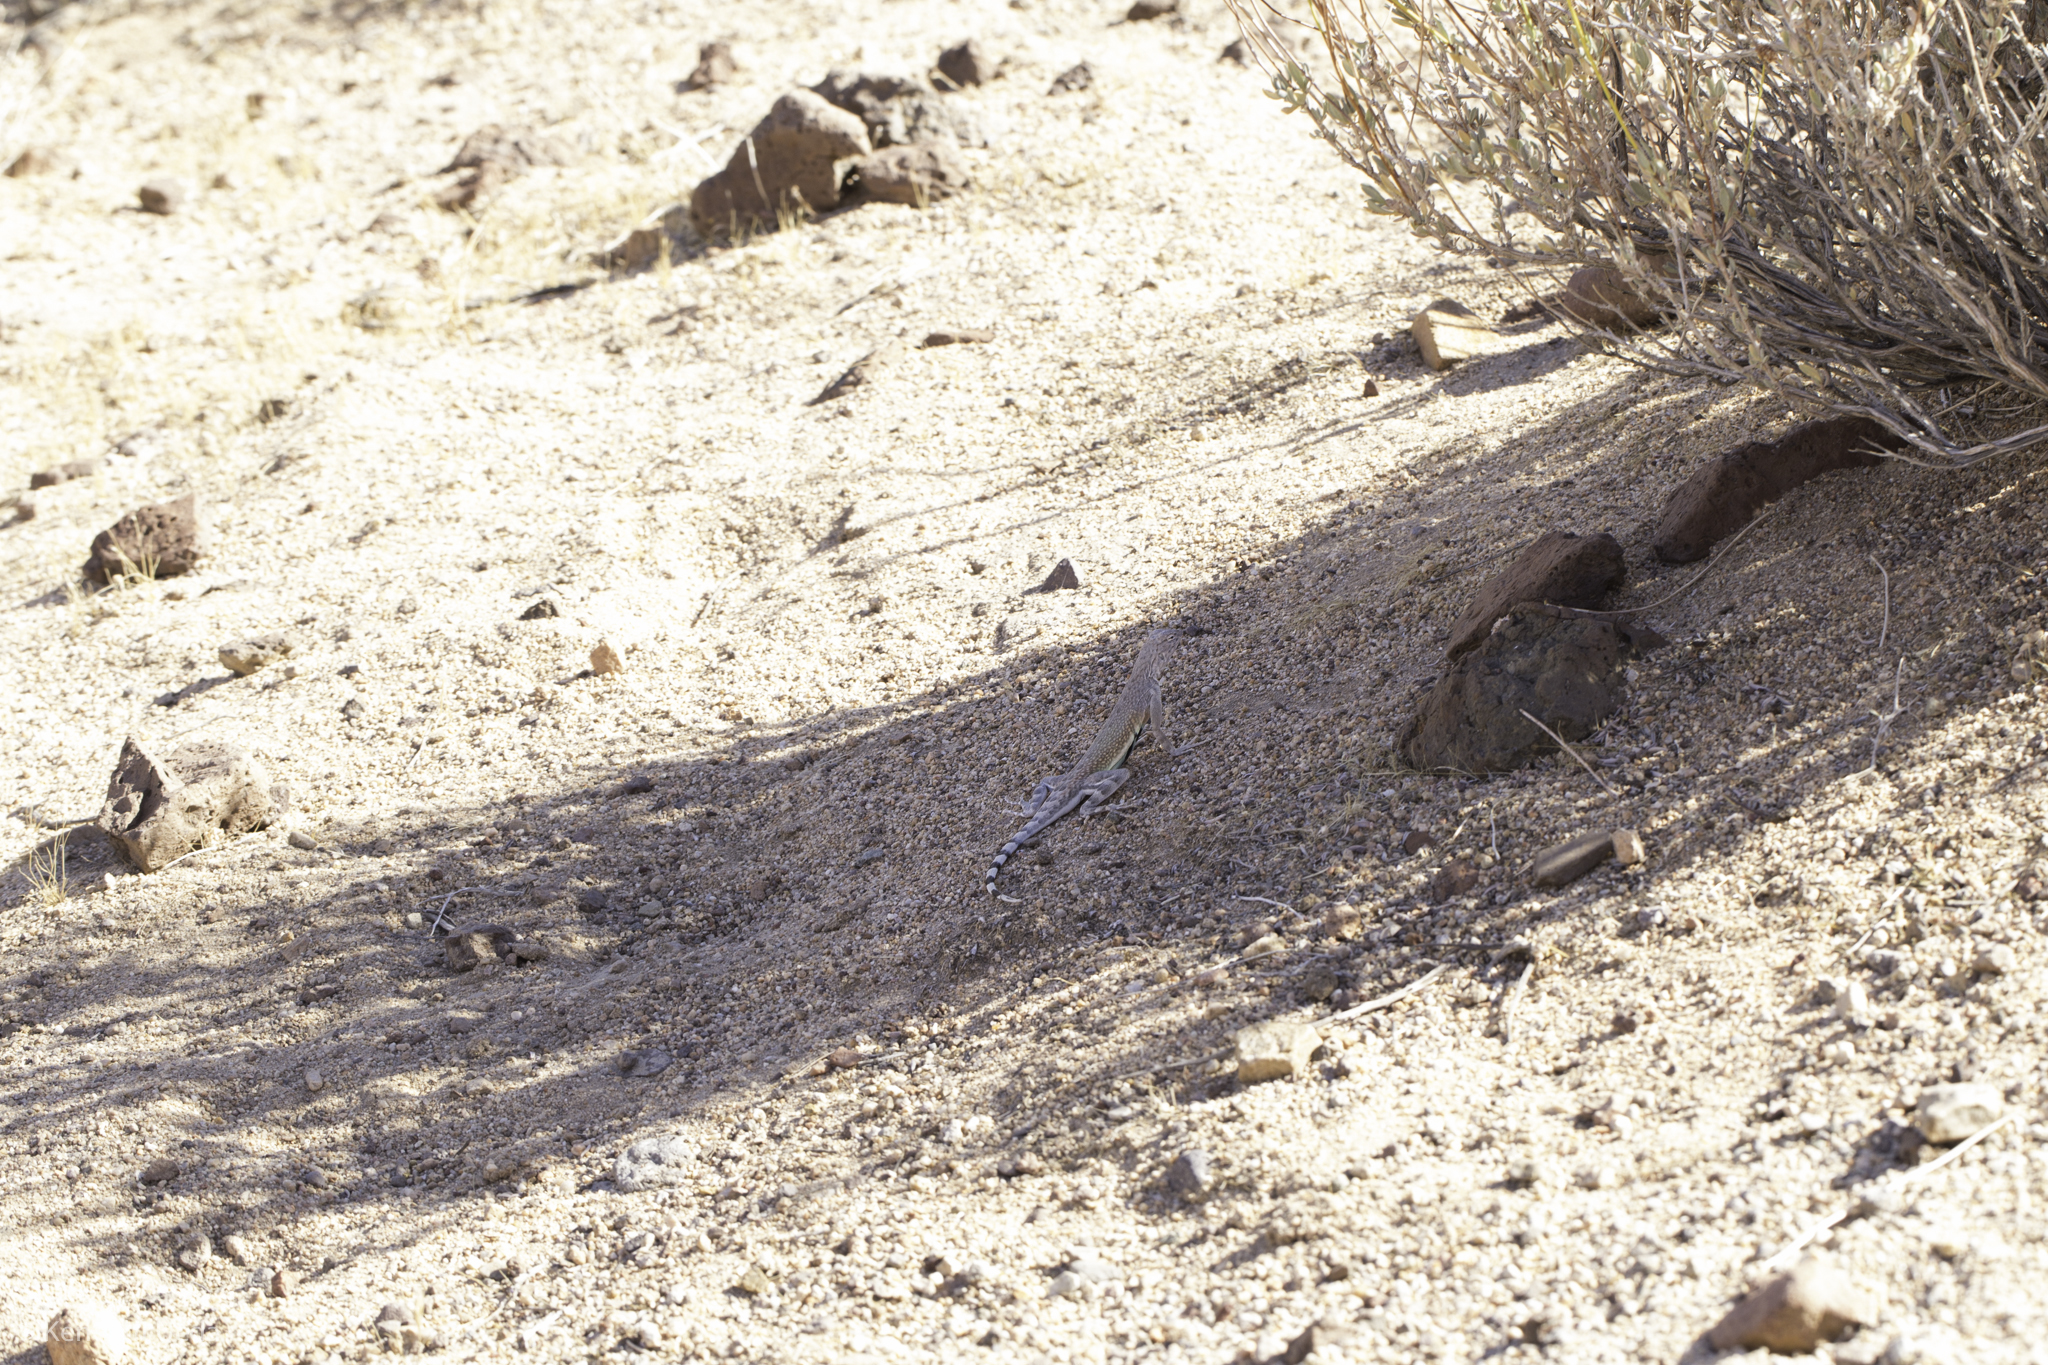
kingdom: Animalia
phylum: Chordata
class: Squamata
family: Phrynosomatidae
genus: Callisaurus
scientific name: Callisaurus draconoides
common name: Zebra-tailed lizard
